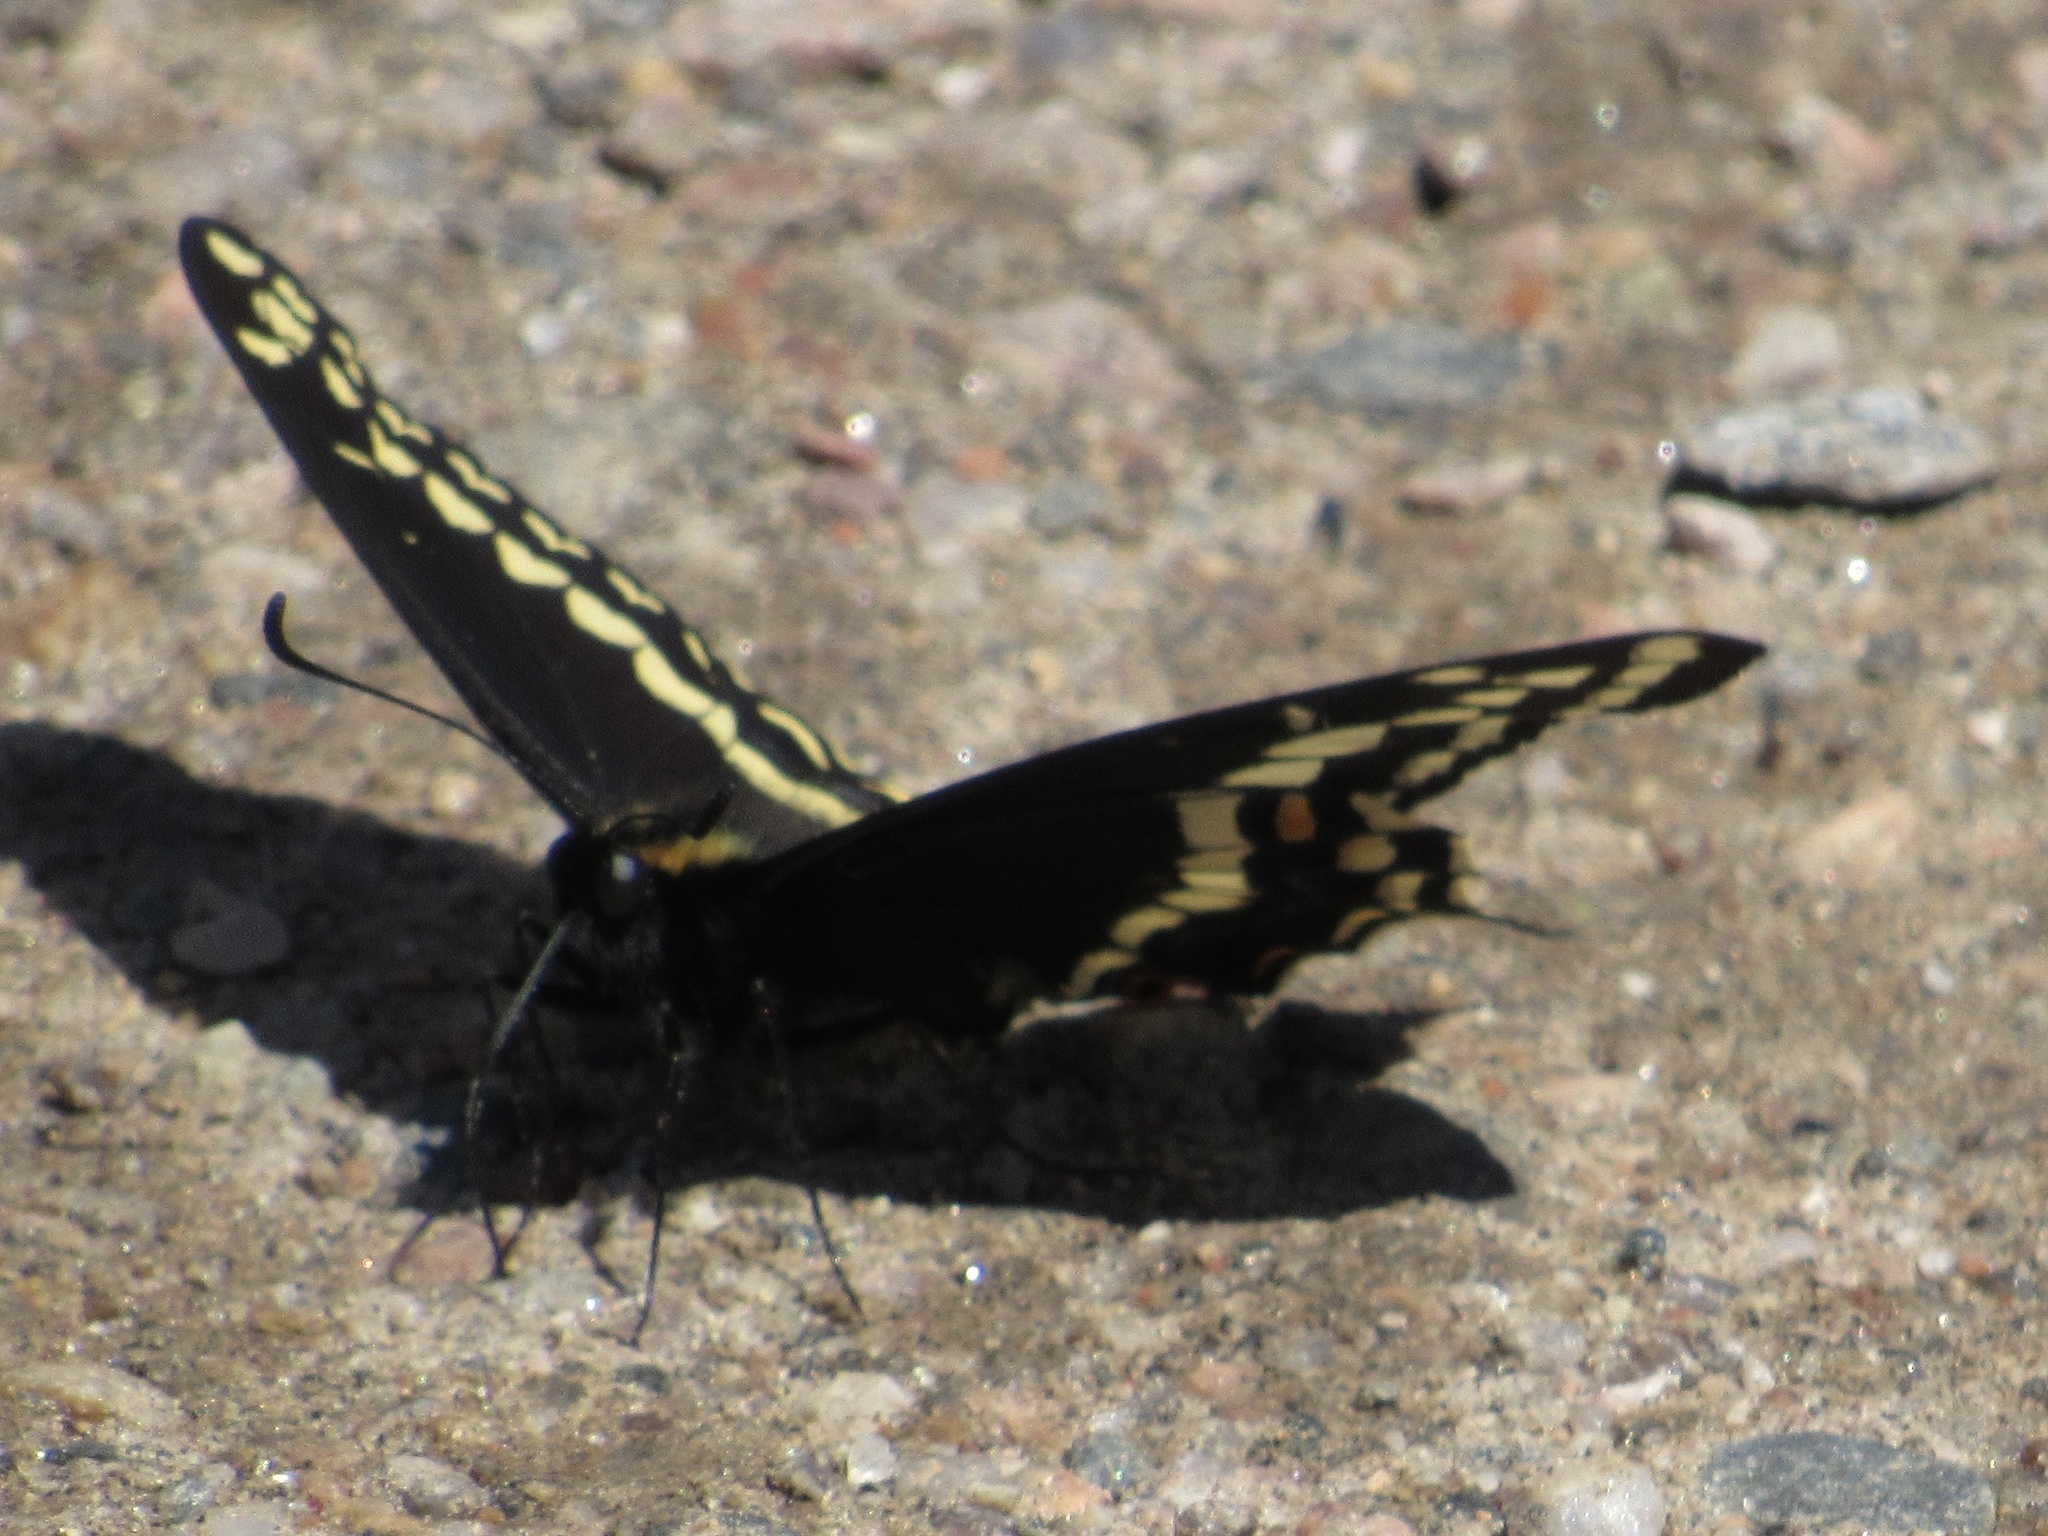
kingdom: Animalia
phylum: Arthropoda
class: Insecta
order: Lepidoptera
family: Papilionidae
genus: Papilio
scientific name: Papilio indra
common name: Cliff swallowtail
